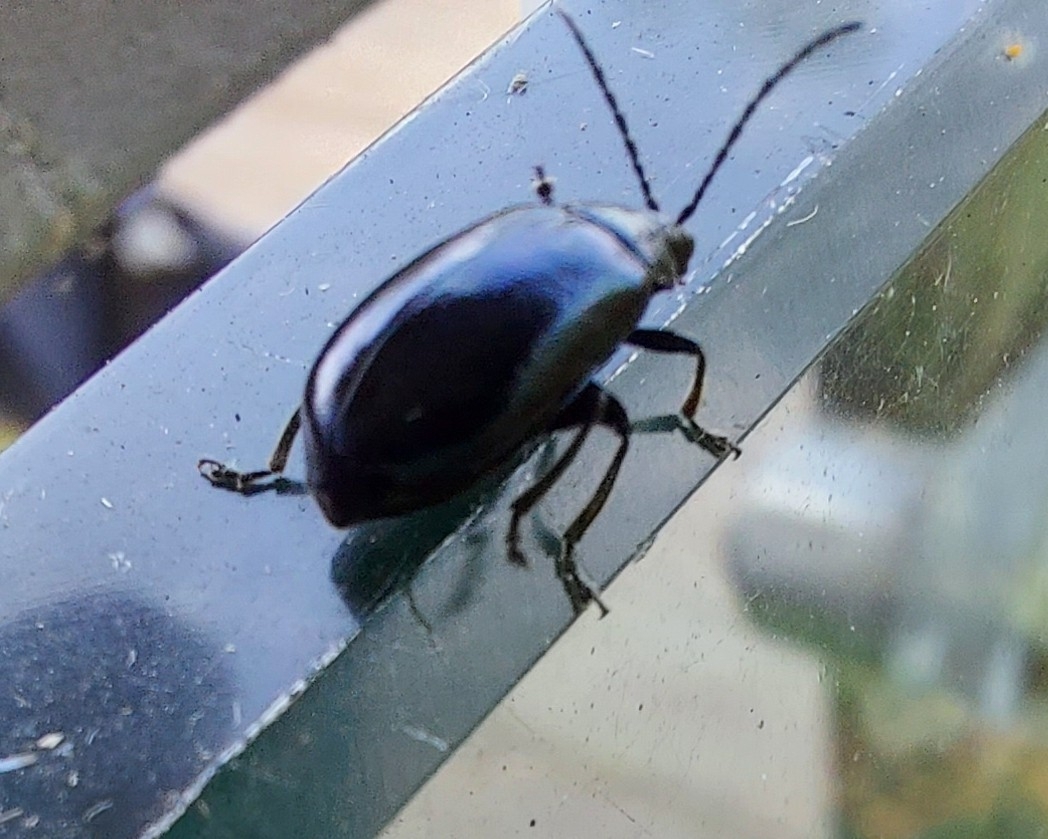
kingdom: Animalia
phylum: Arthropoda
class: Insecta
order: Coleoptera
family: Chrysomelidae
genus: Agelastica
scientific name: Agelastica alni
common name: Alder leaf beetle
